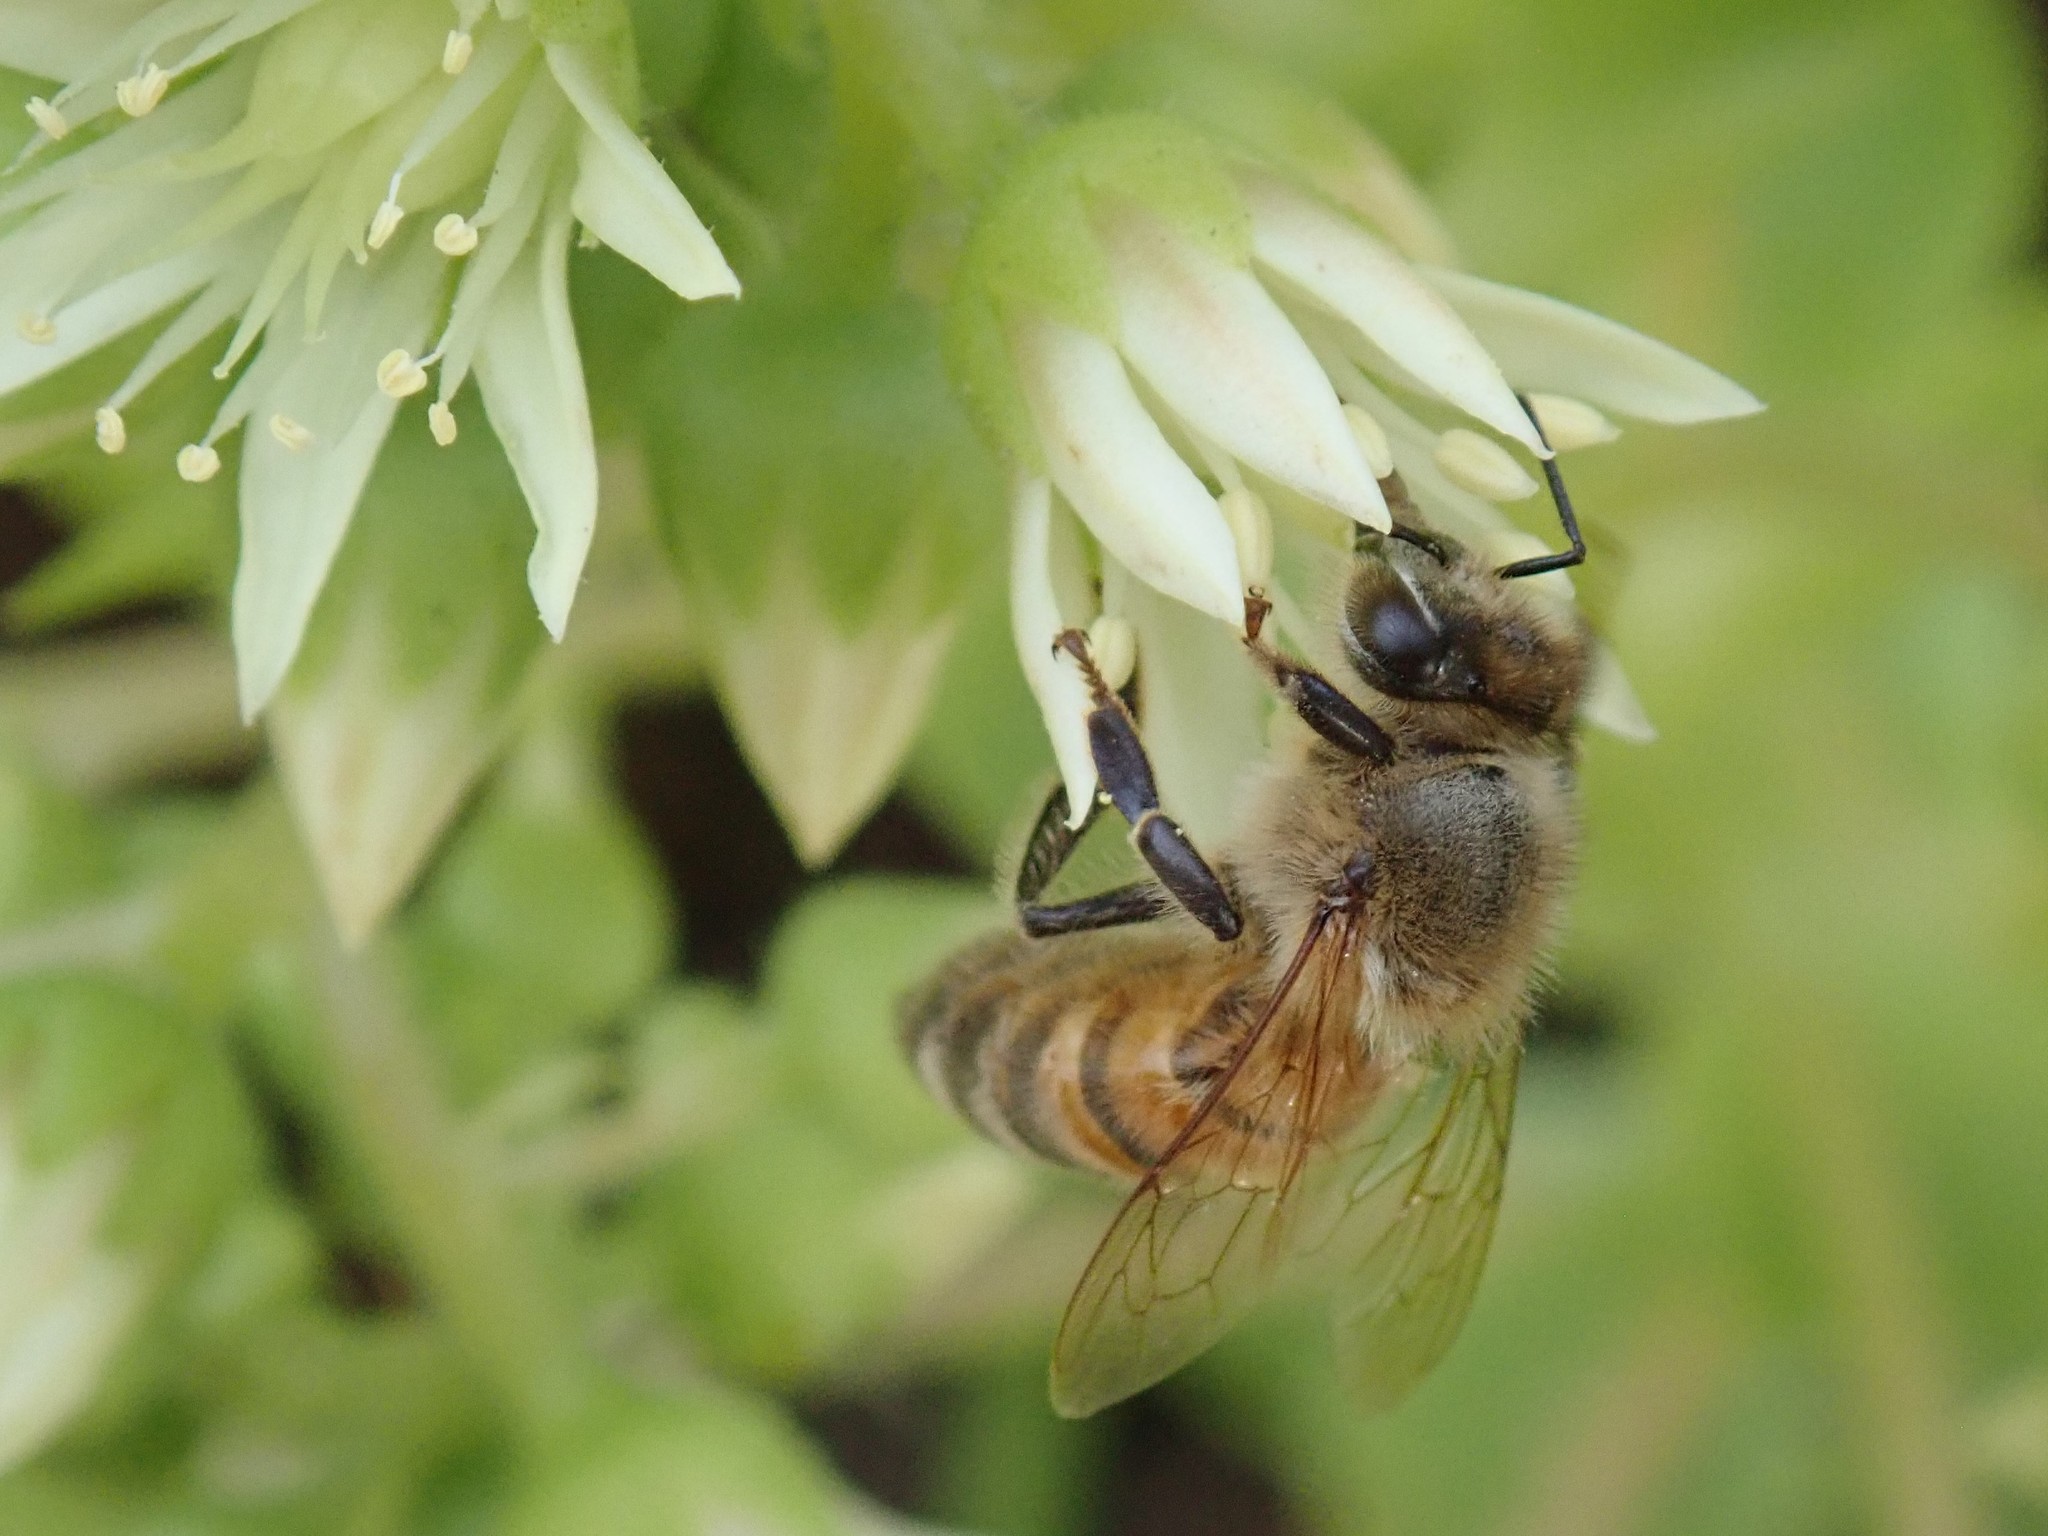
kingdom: Animalia
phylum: Arthropoda
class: Insecta
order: Hymenoptera
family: Apidae
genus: Apis
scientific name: Apis mellifera
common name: Honey bee
